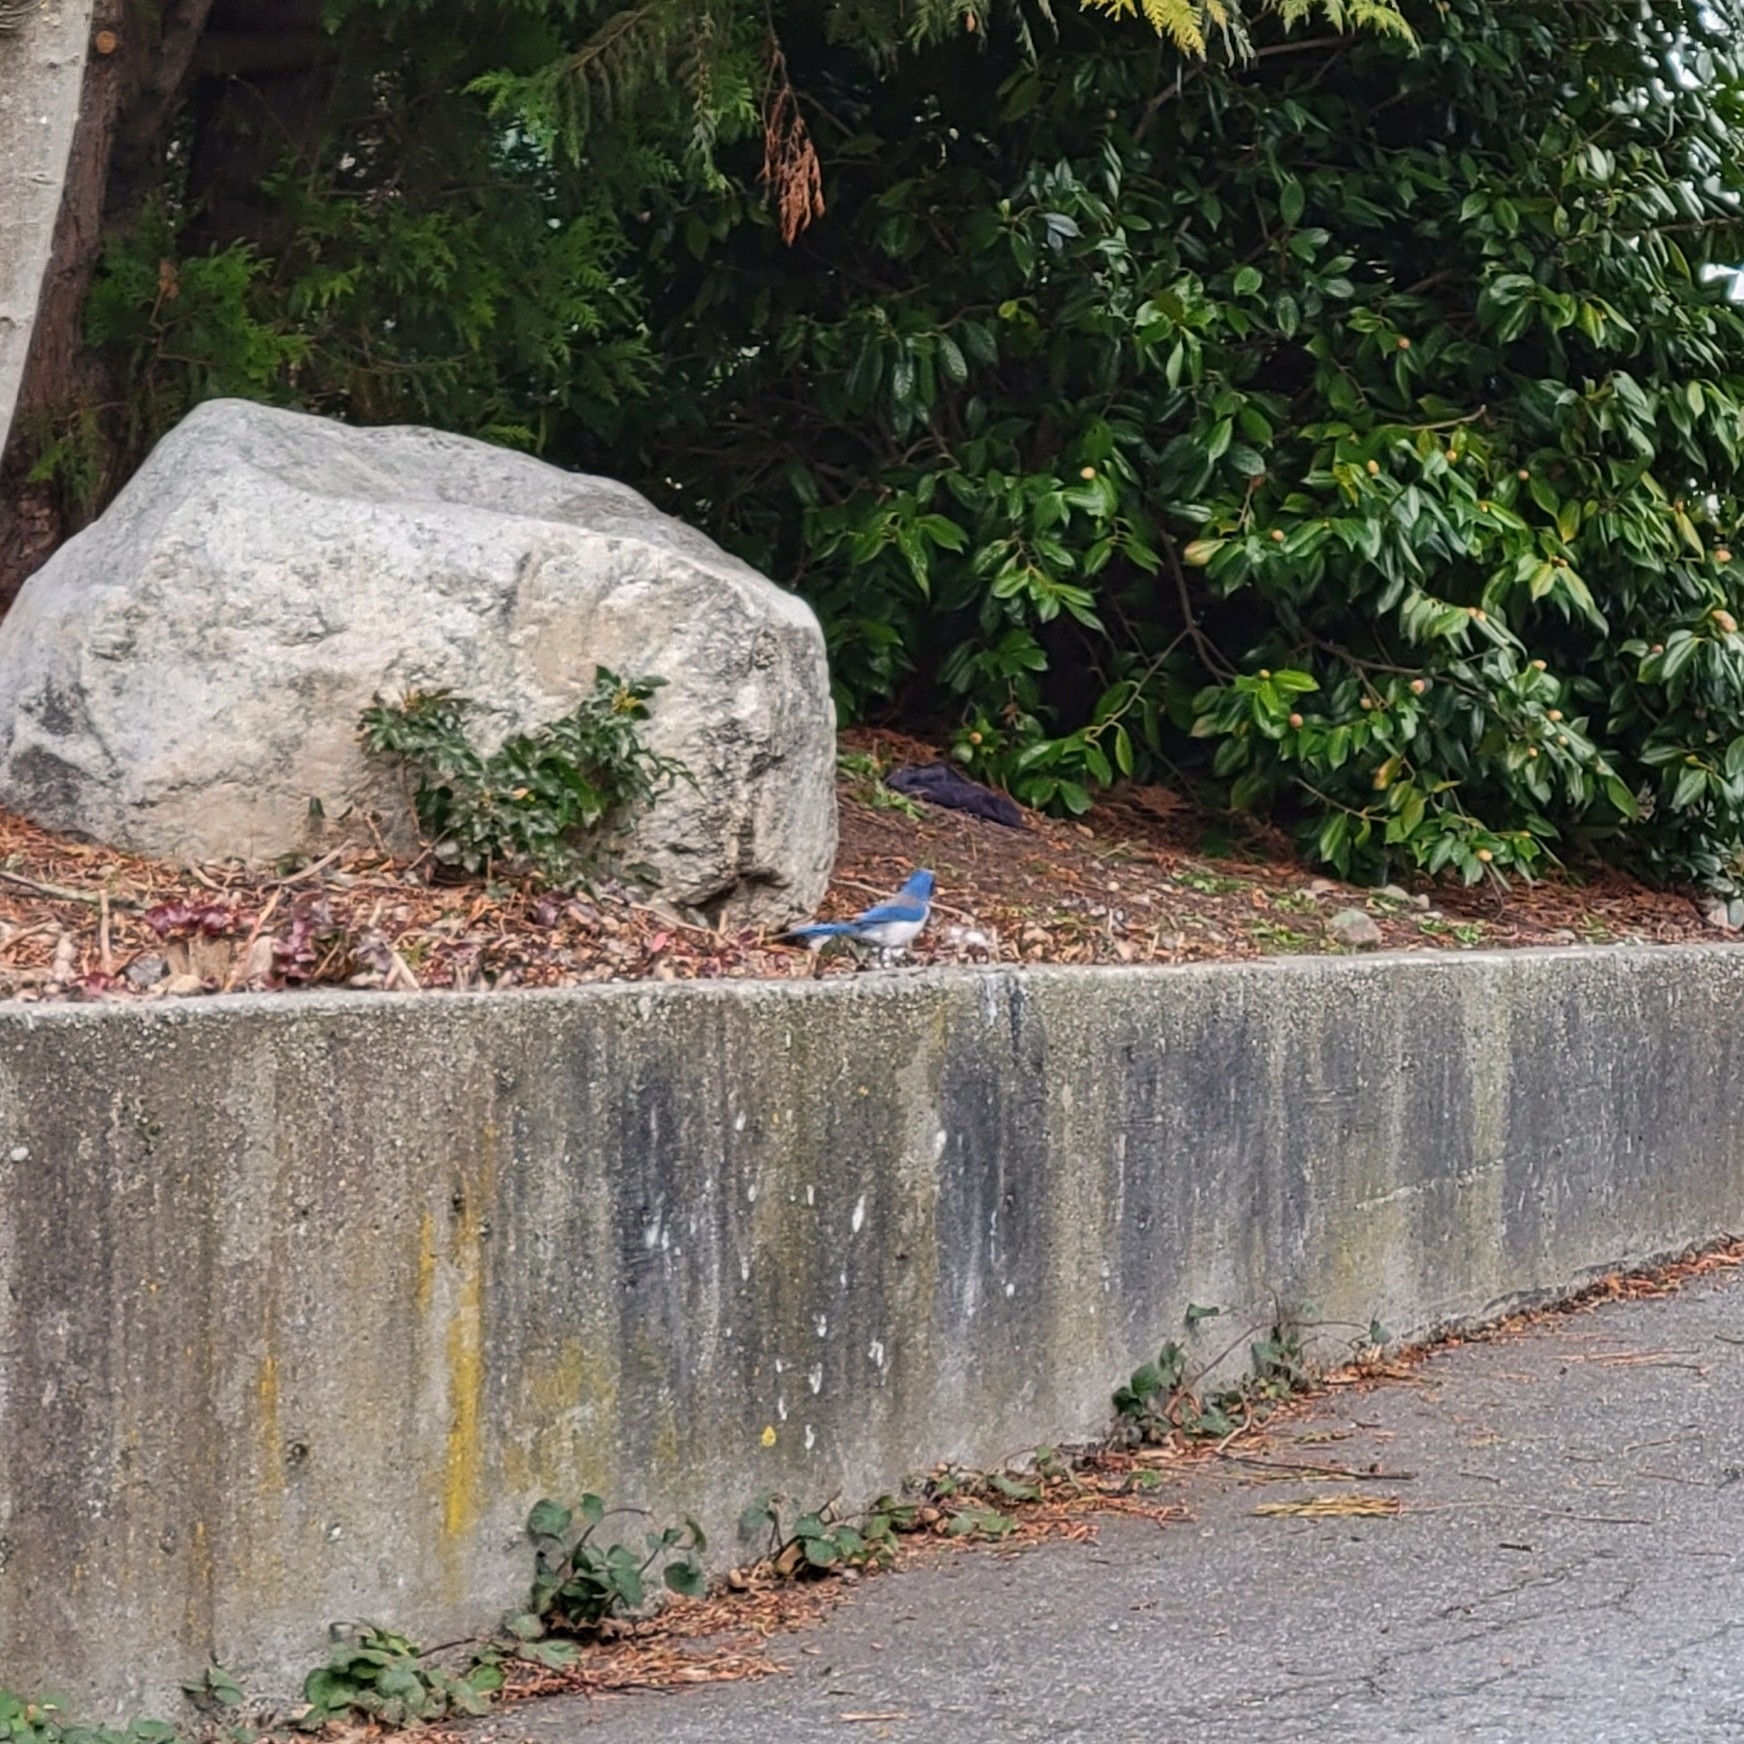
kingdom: Animalia
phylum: Chordata
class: Aves
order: Passeriformes
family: Corvidae
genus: Aphelocoma
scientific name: Aphelocoma californica
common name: California scrub-jay
